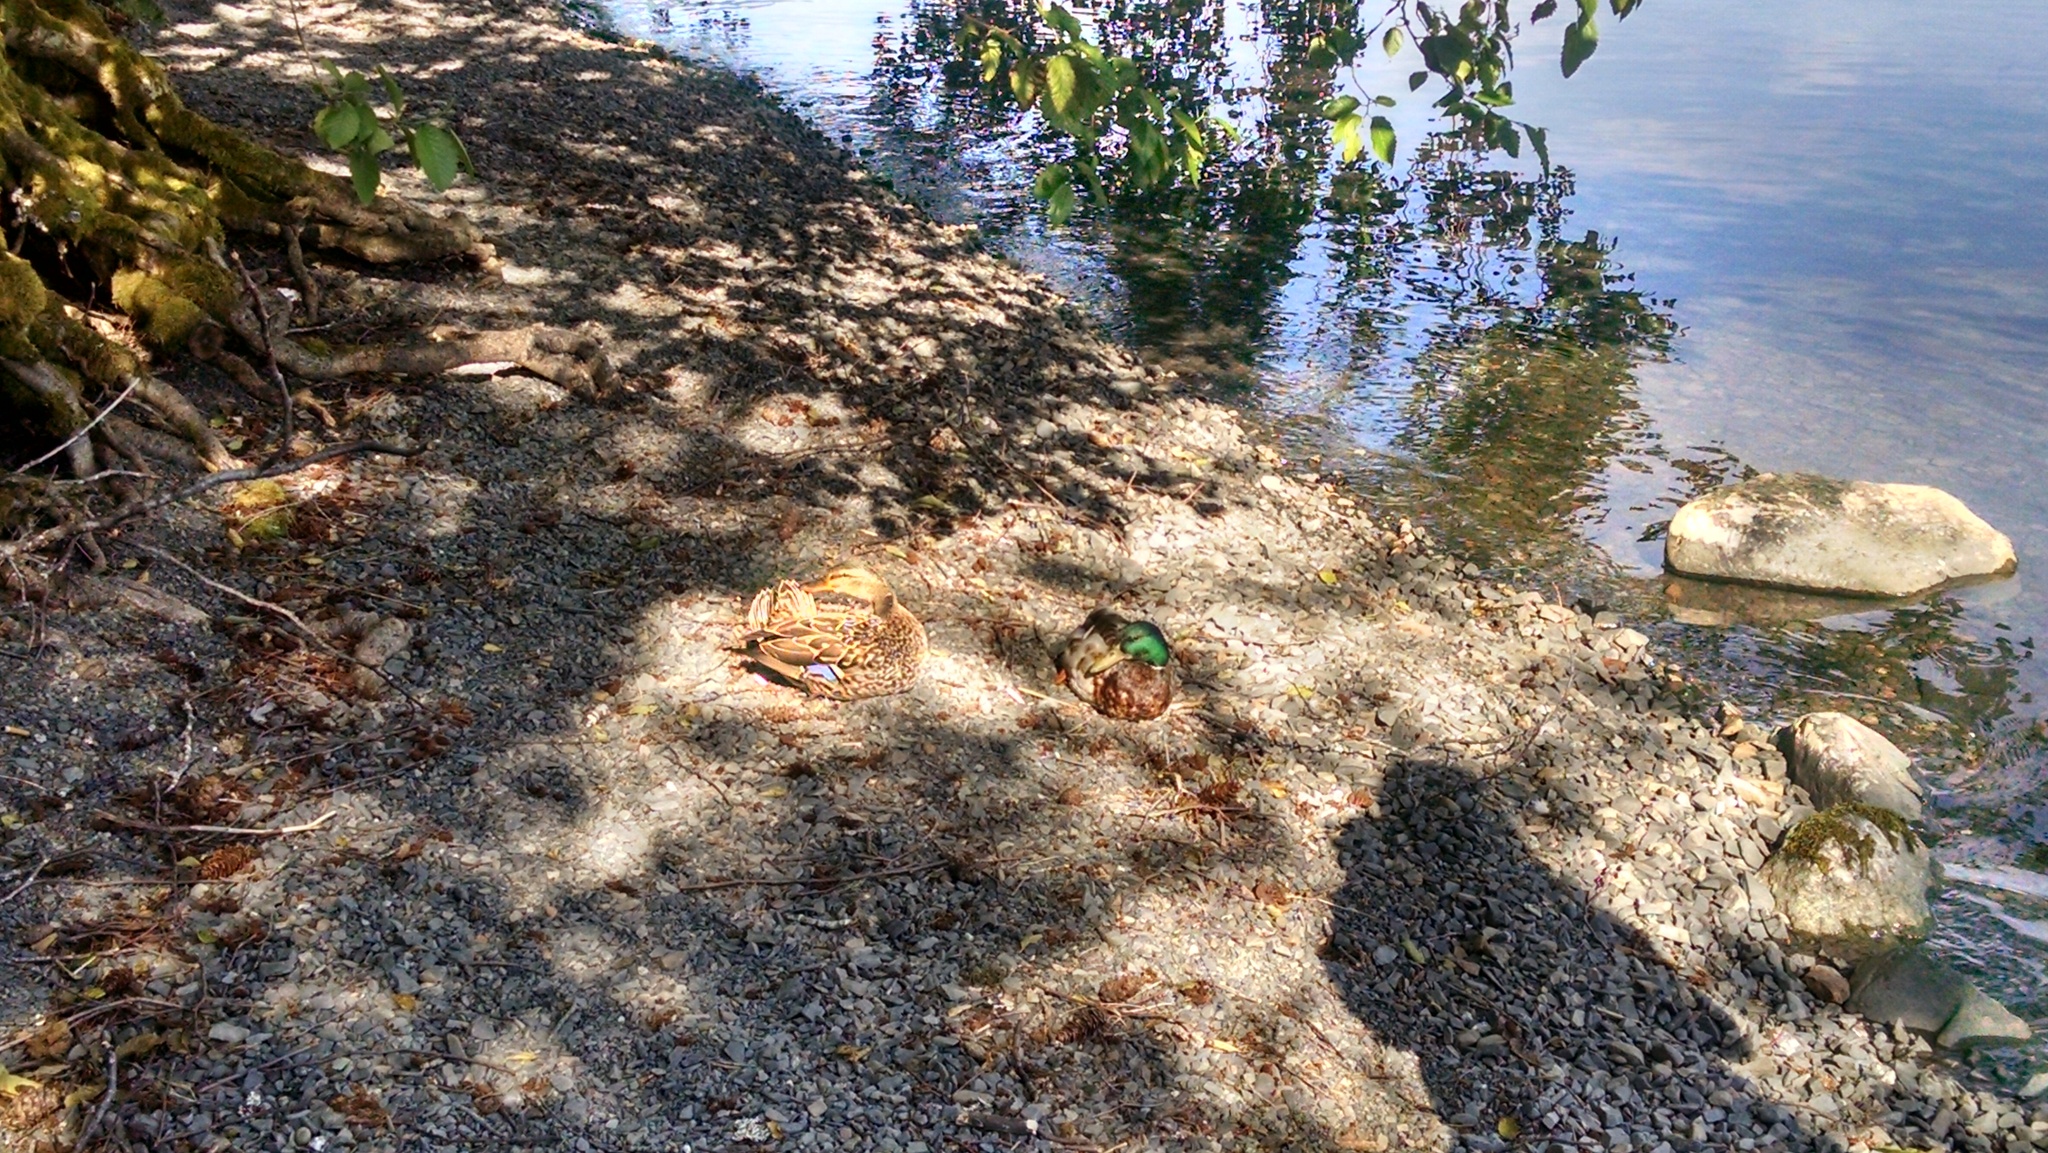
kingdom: Animalia
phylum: Chordata
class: Aves
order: Anseriformes
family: Anatidae
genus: Anas
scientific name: Anas platyrhynchos
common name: Mallard
